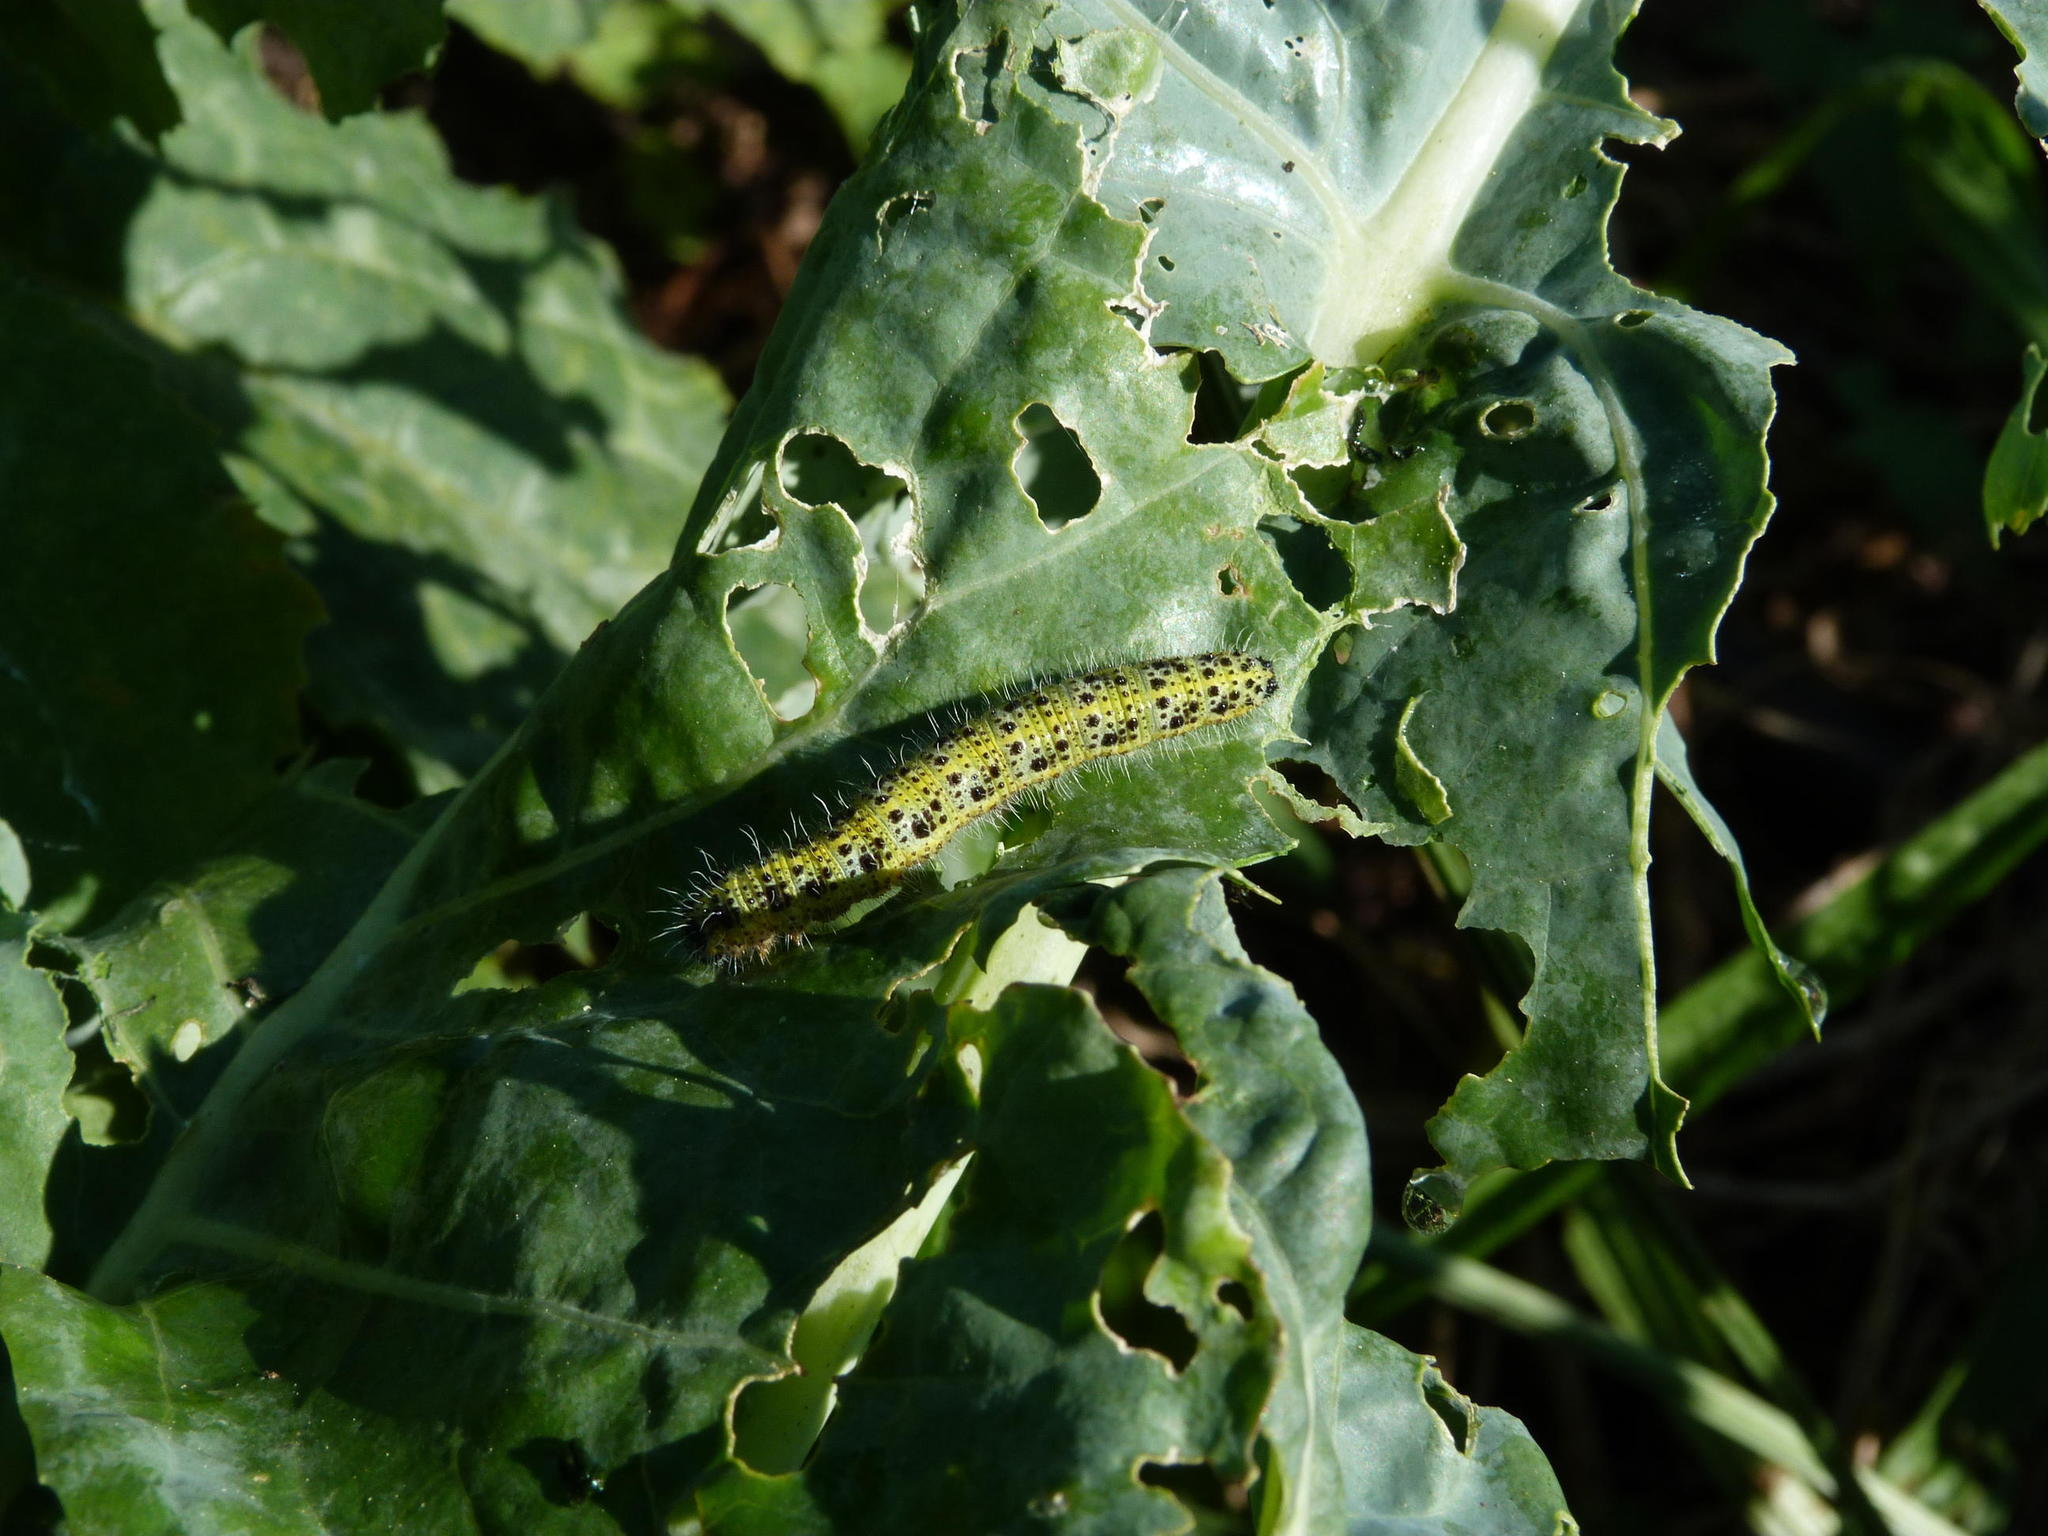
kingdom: Animalia
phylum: Arthropoda
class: Insecta
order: Lepidoptera
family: Pieridae
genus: Pieris
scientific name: Pieris brassicae
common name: Large white
